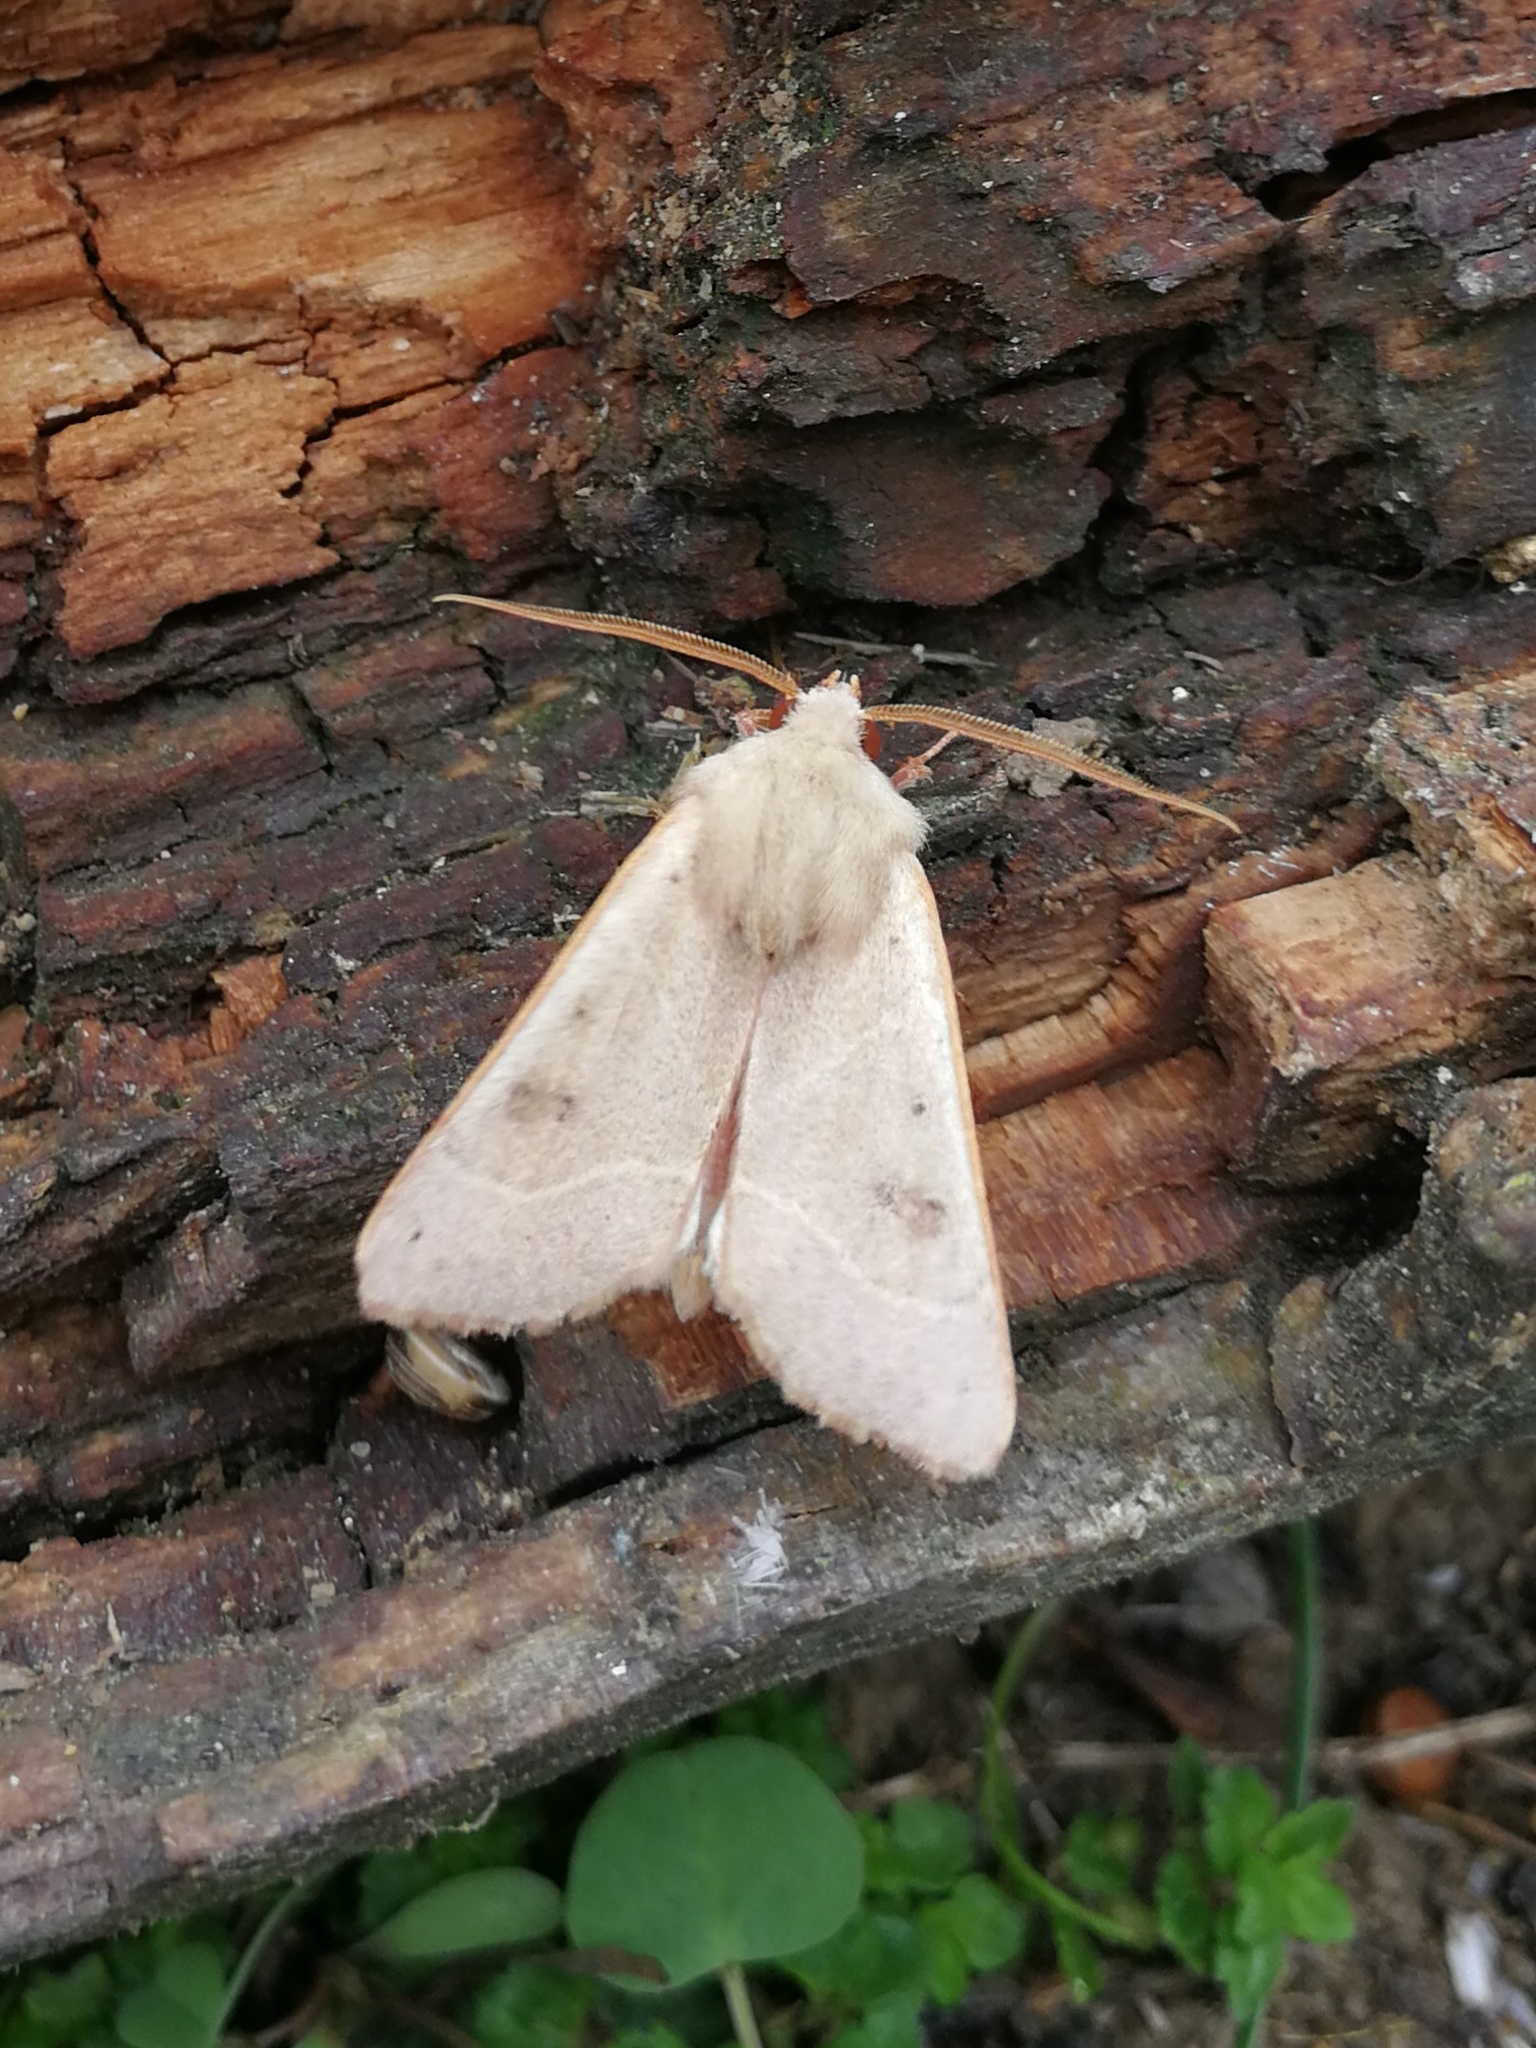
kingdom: Animalia
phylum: Arthropoda
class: Insecta
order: Lepidoptera
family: Noctuidae
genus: Pseudenargia
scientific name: Pseudenargia ulicis
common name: Berber
